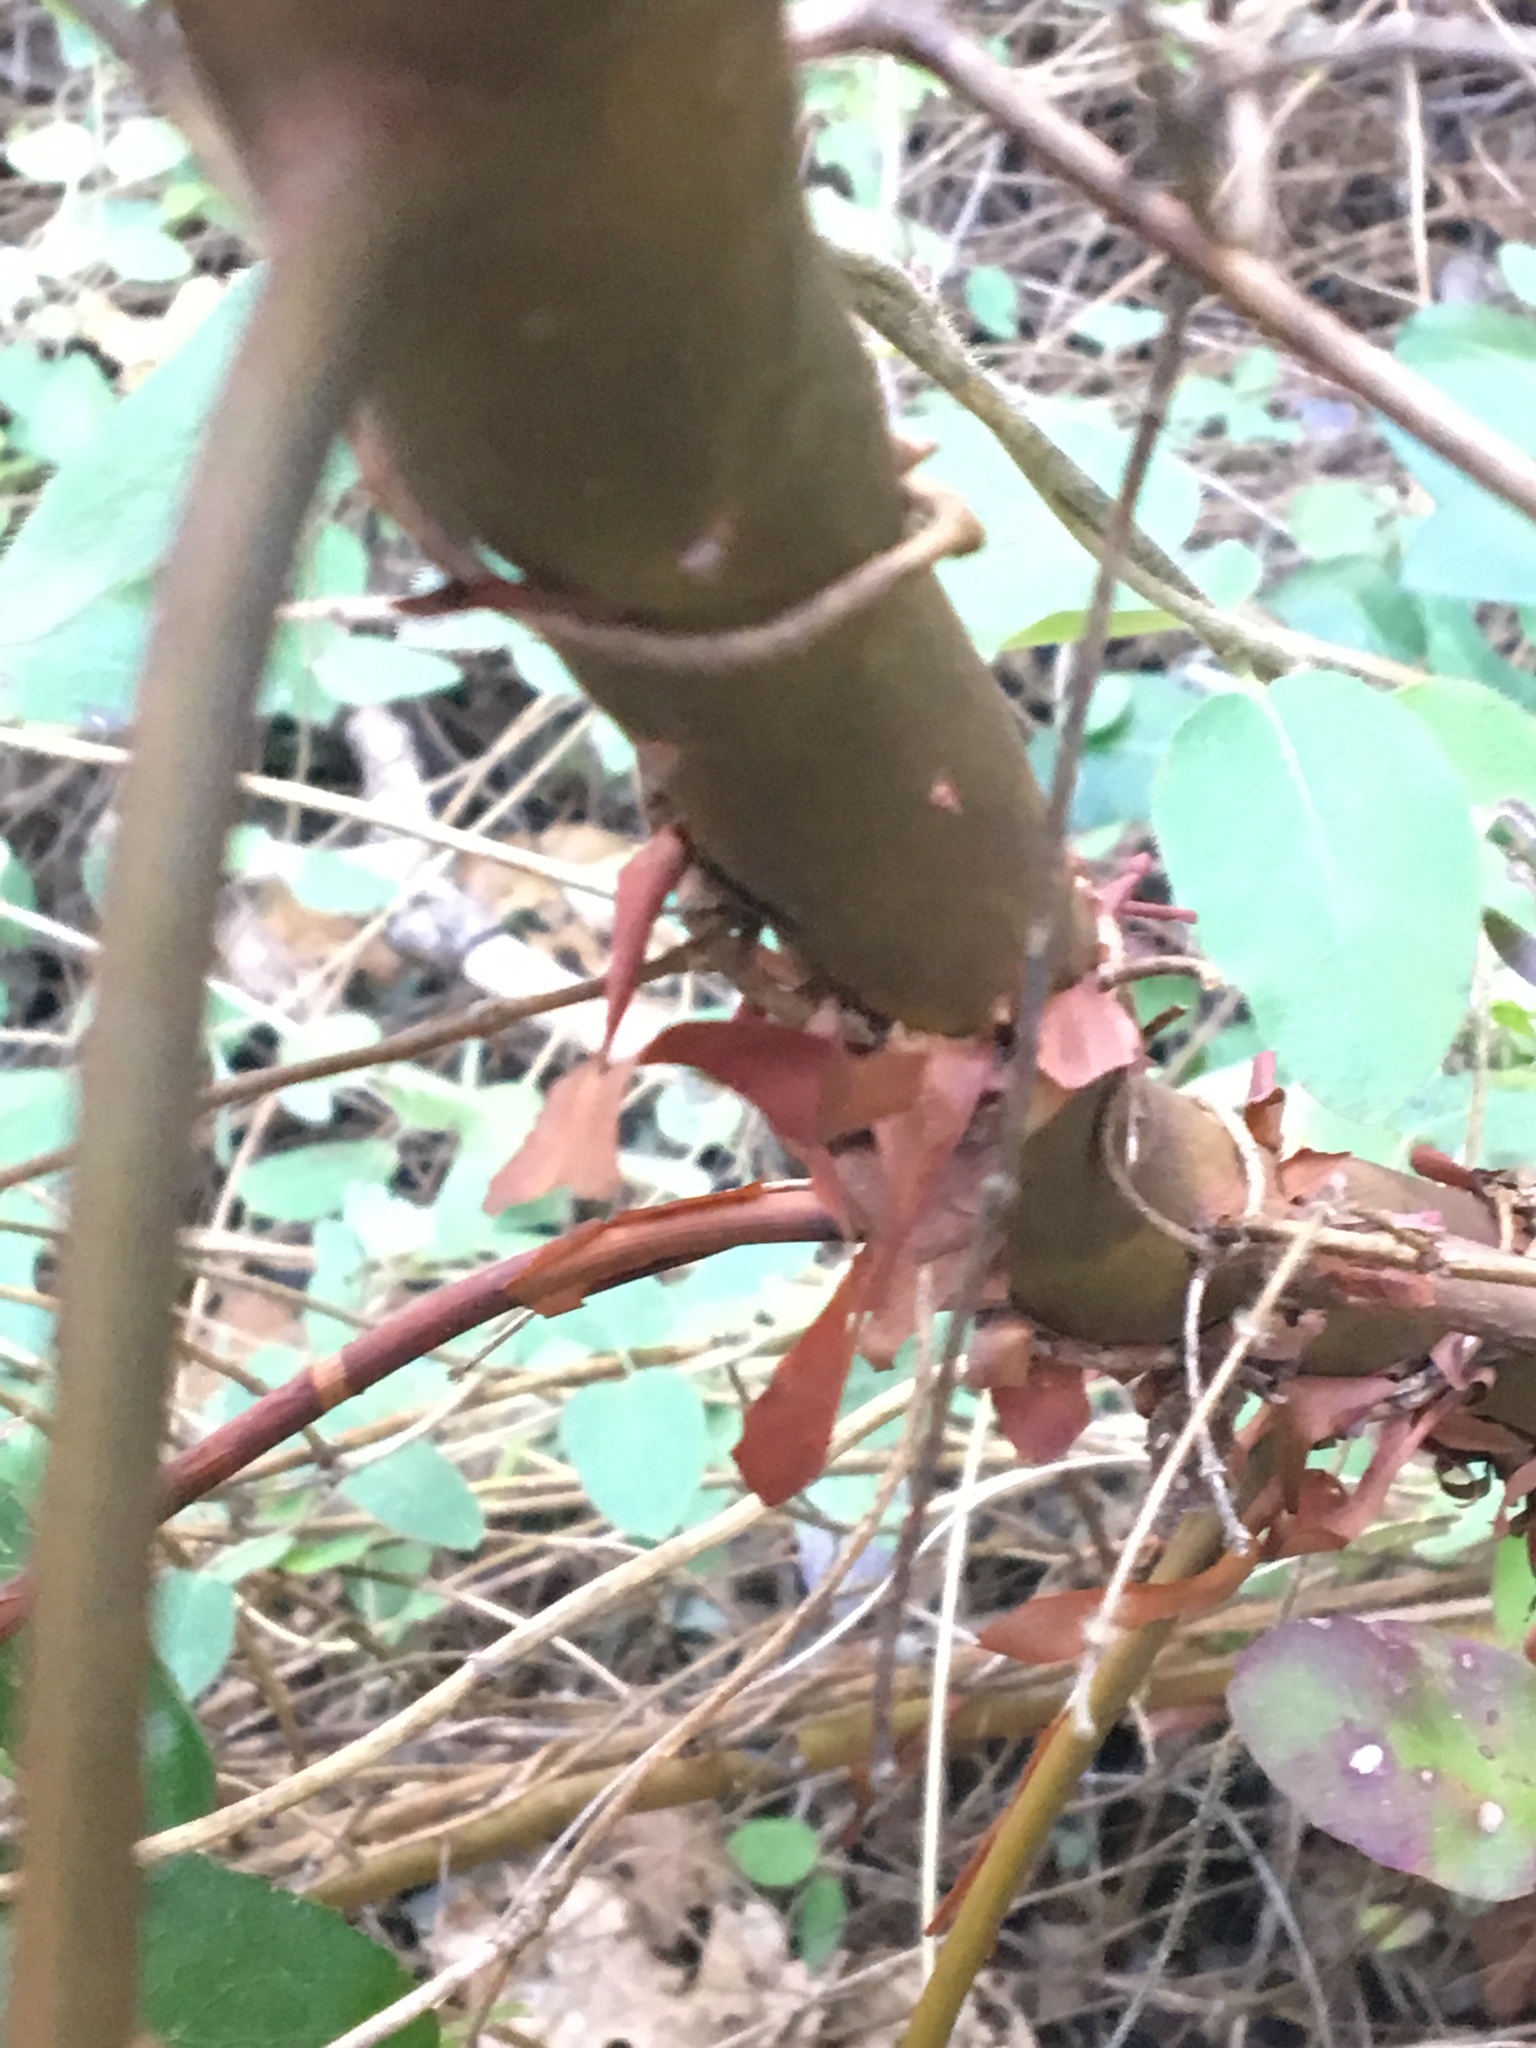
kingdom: Plantae
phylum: Tracheophyta
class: Magnoliopsida
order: Ericales
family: Ericaceae
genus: Arbutus
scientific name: Arbutus menziesii
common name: Pacific madrone
